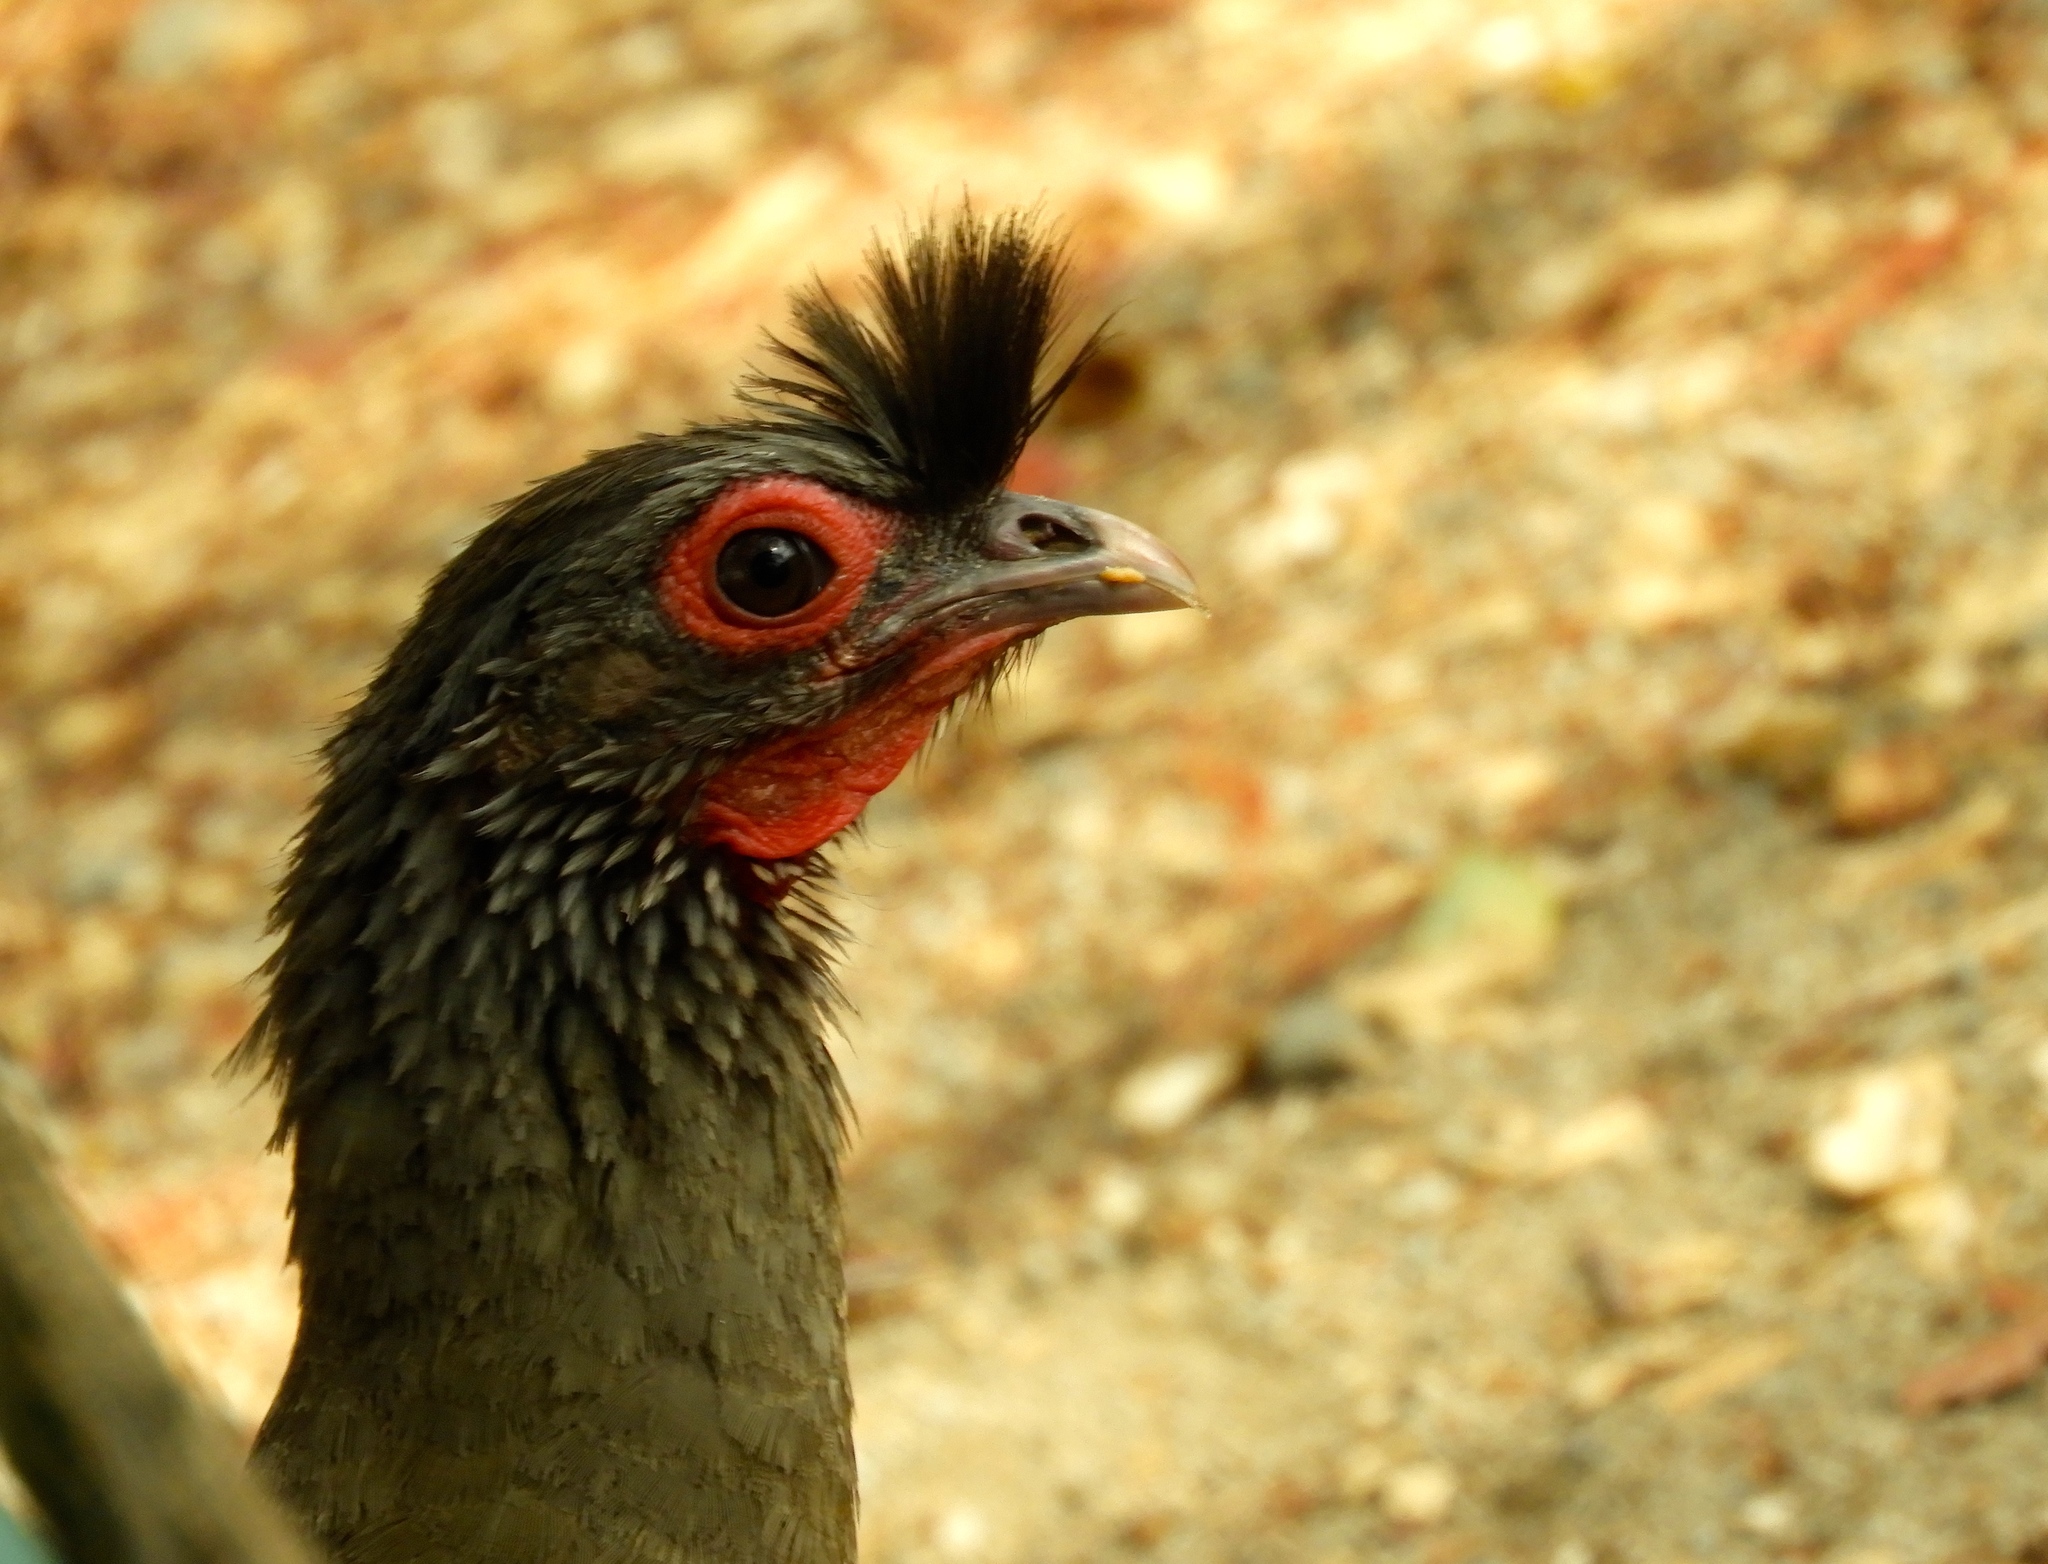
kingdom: Animalia
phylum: Chordata
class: Aves
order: Galliformes
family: Cracidae
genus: Ortalis
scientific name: Ortalis wagleri
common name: Rufous-bellied chachalaca
